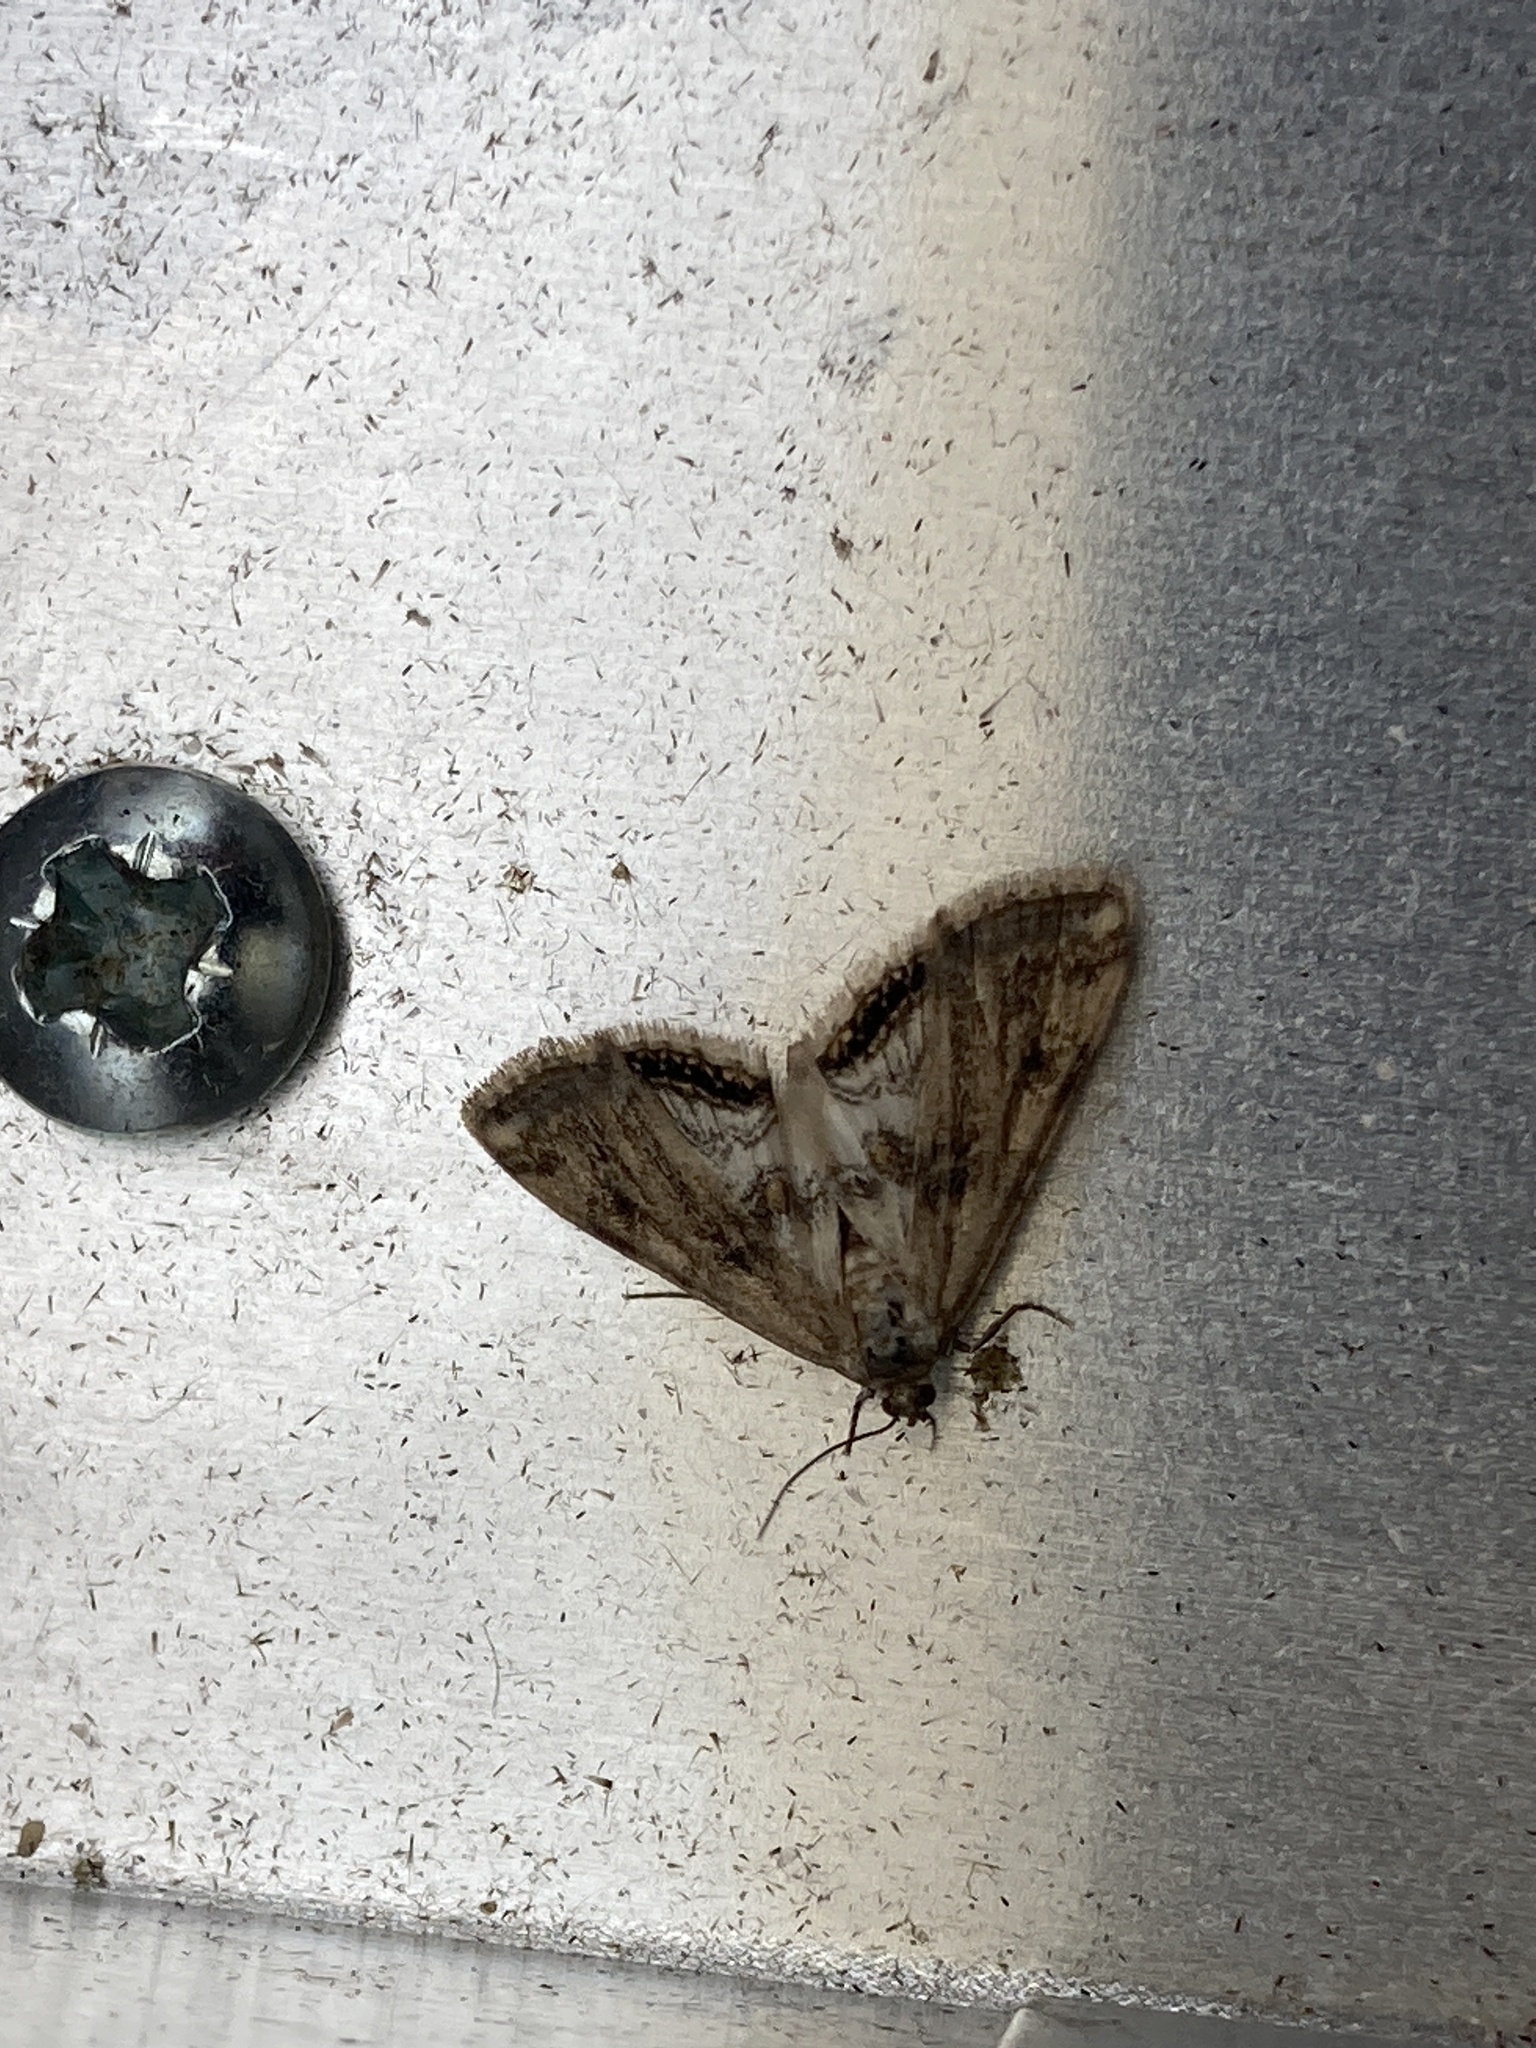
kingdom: Animalia
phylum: Arthropoda
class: Insecta
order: Lepidoptera
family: Crambidae
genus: Cataclysta
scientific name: Cataclysta lemnata
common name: Small china-mark
